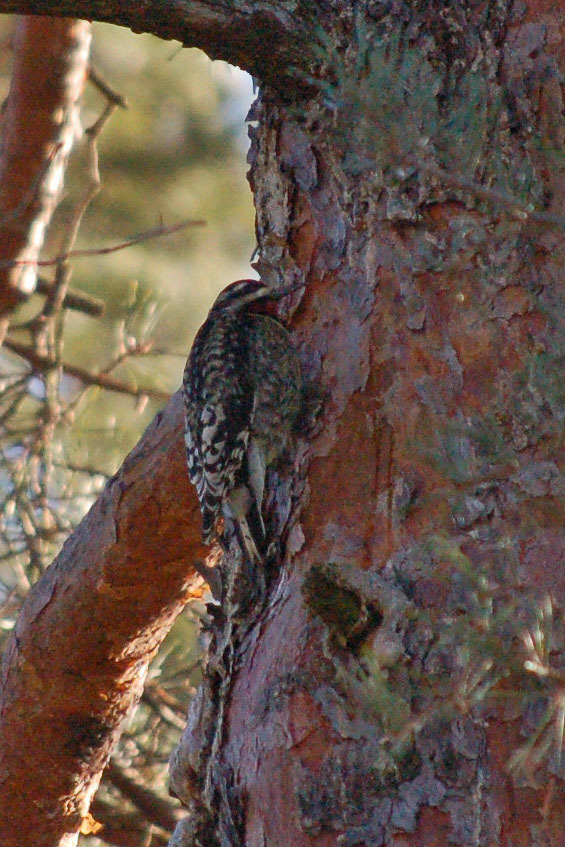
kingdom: Animalia
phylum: Chordata
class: Aves
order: Piciformes
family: Picidae
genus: Sphyrapicus
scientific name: Sphyrapicus varius
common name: Yellow-bellied sapsucker
